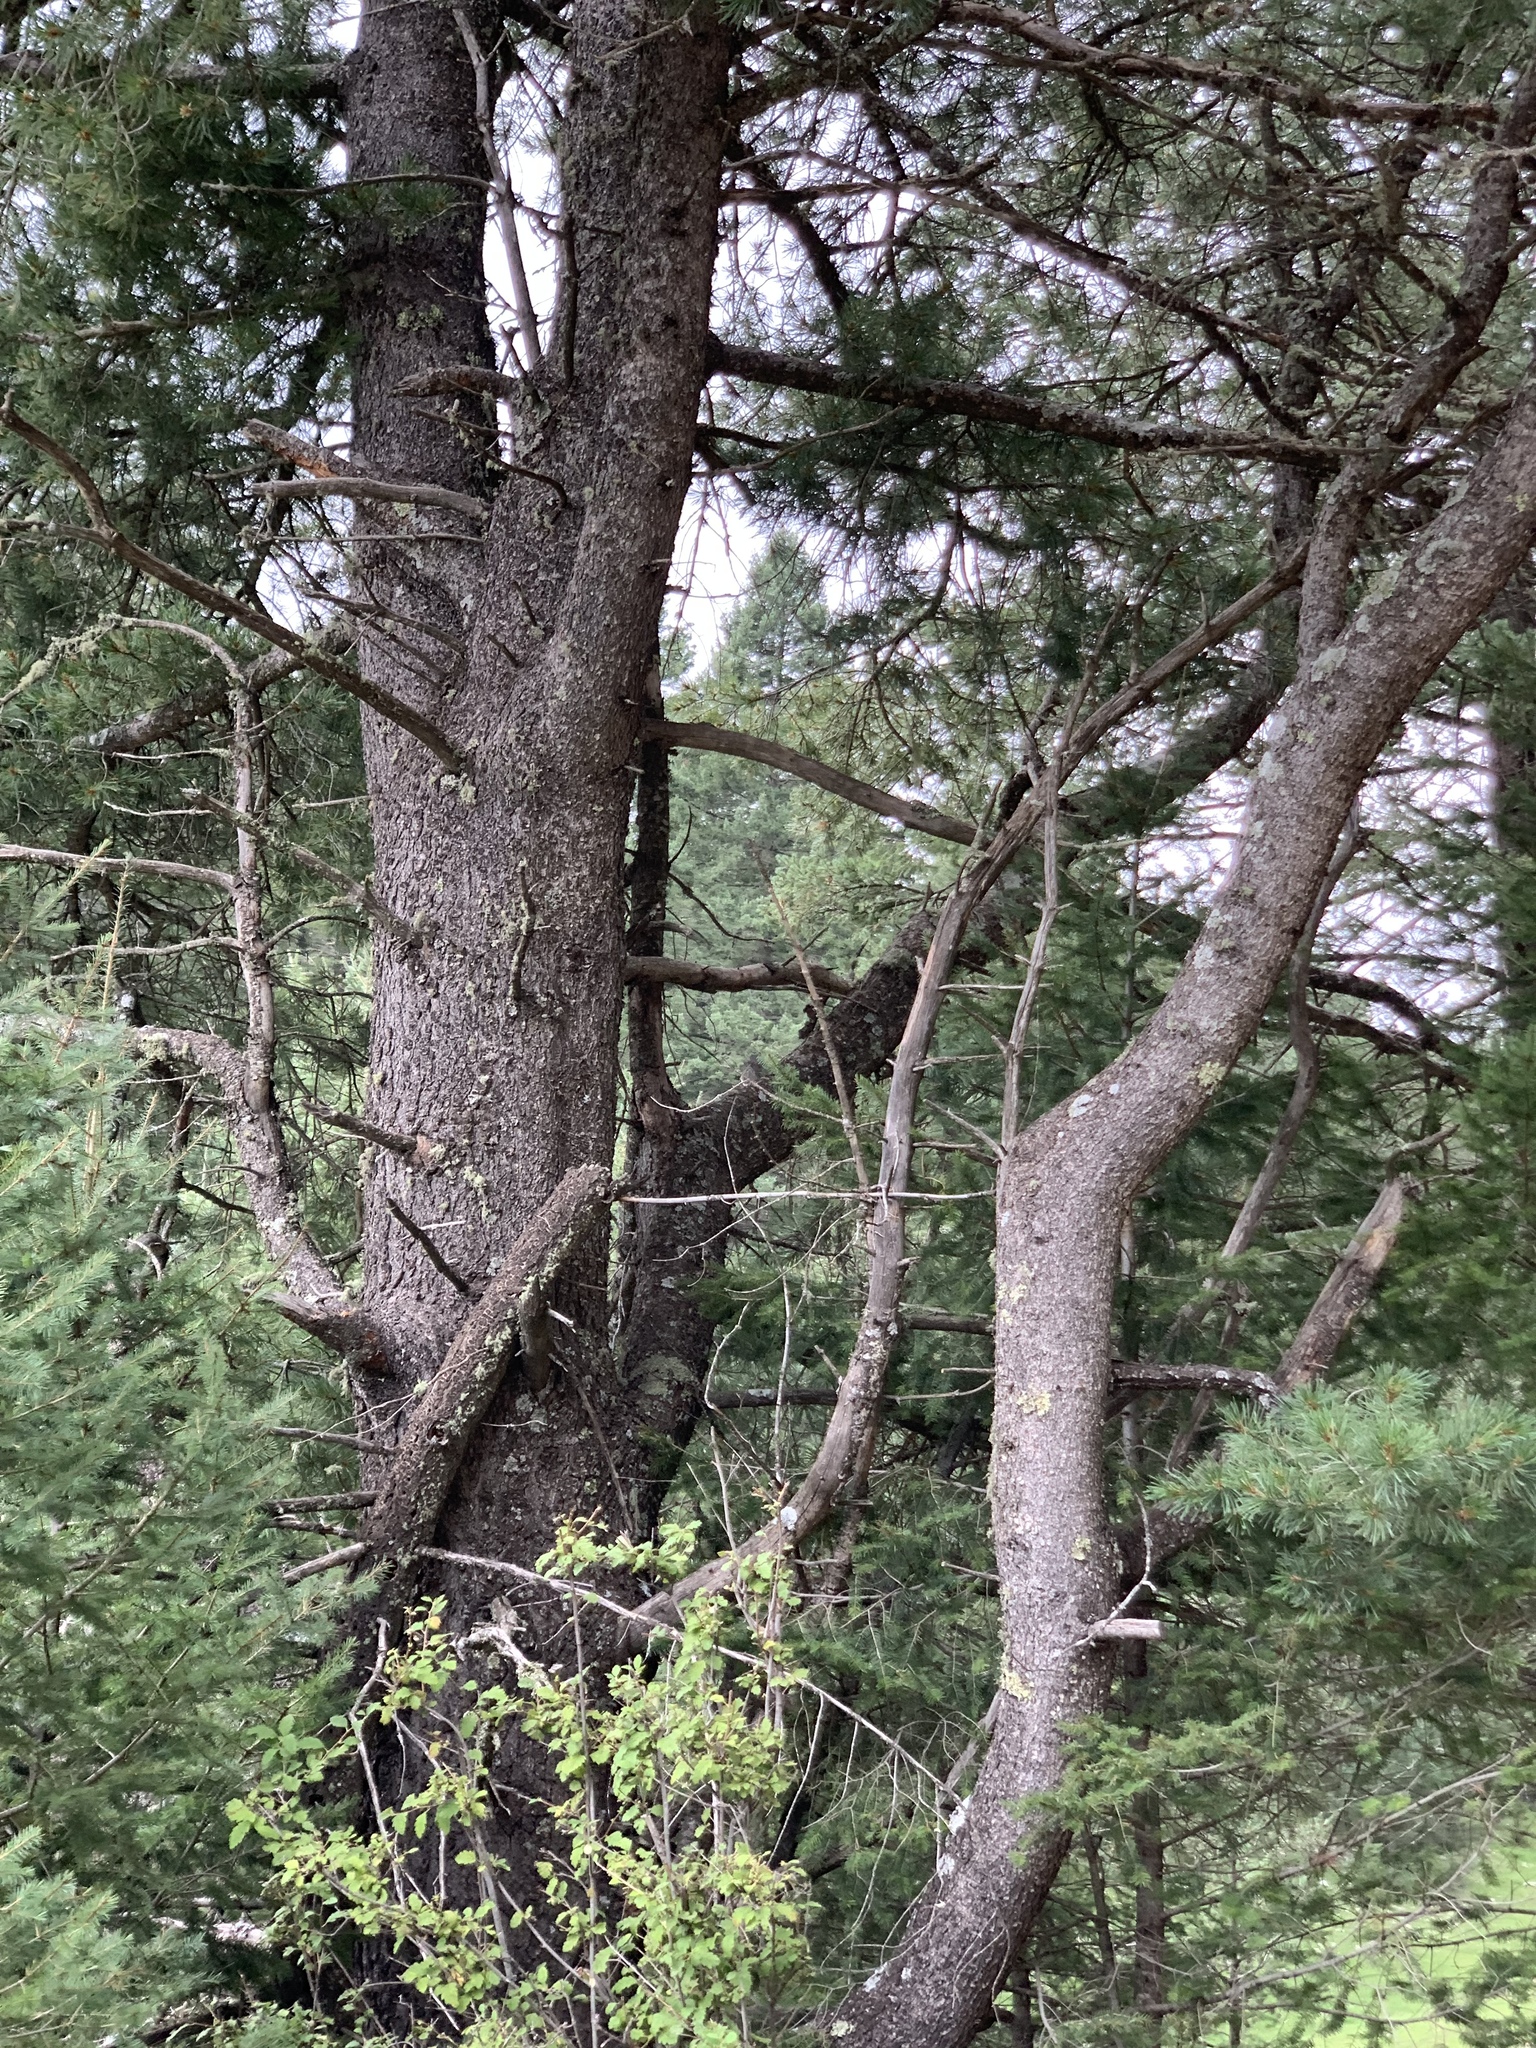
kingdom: Plantae
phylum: Tracheophyta
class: Pinopsida
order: Pinales
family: Pinaceae
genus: Pinus
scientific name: Pinus strobiformis
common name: Southwestern white pine
